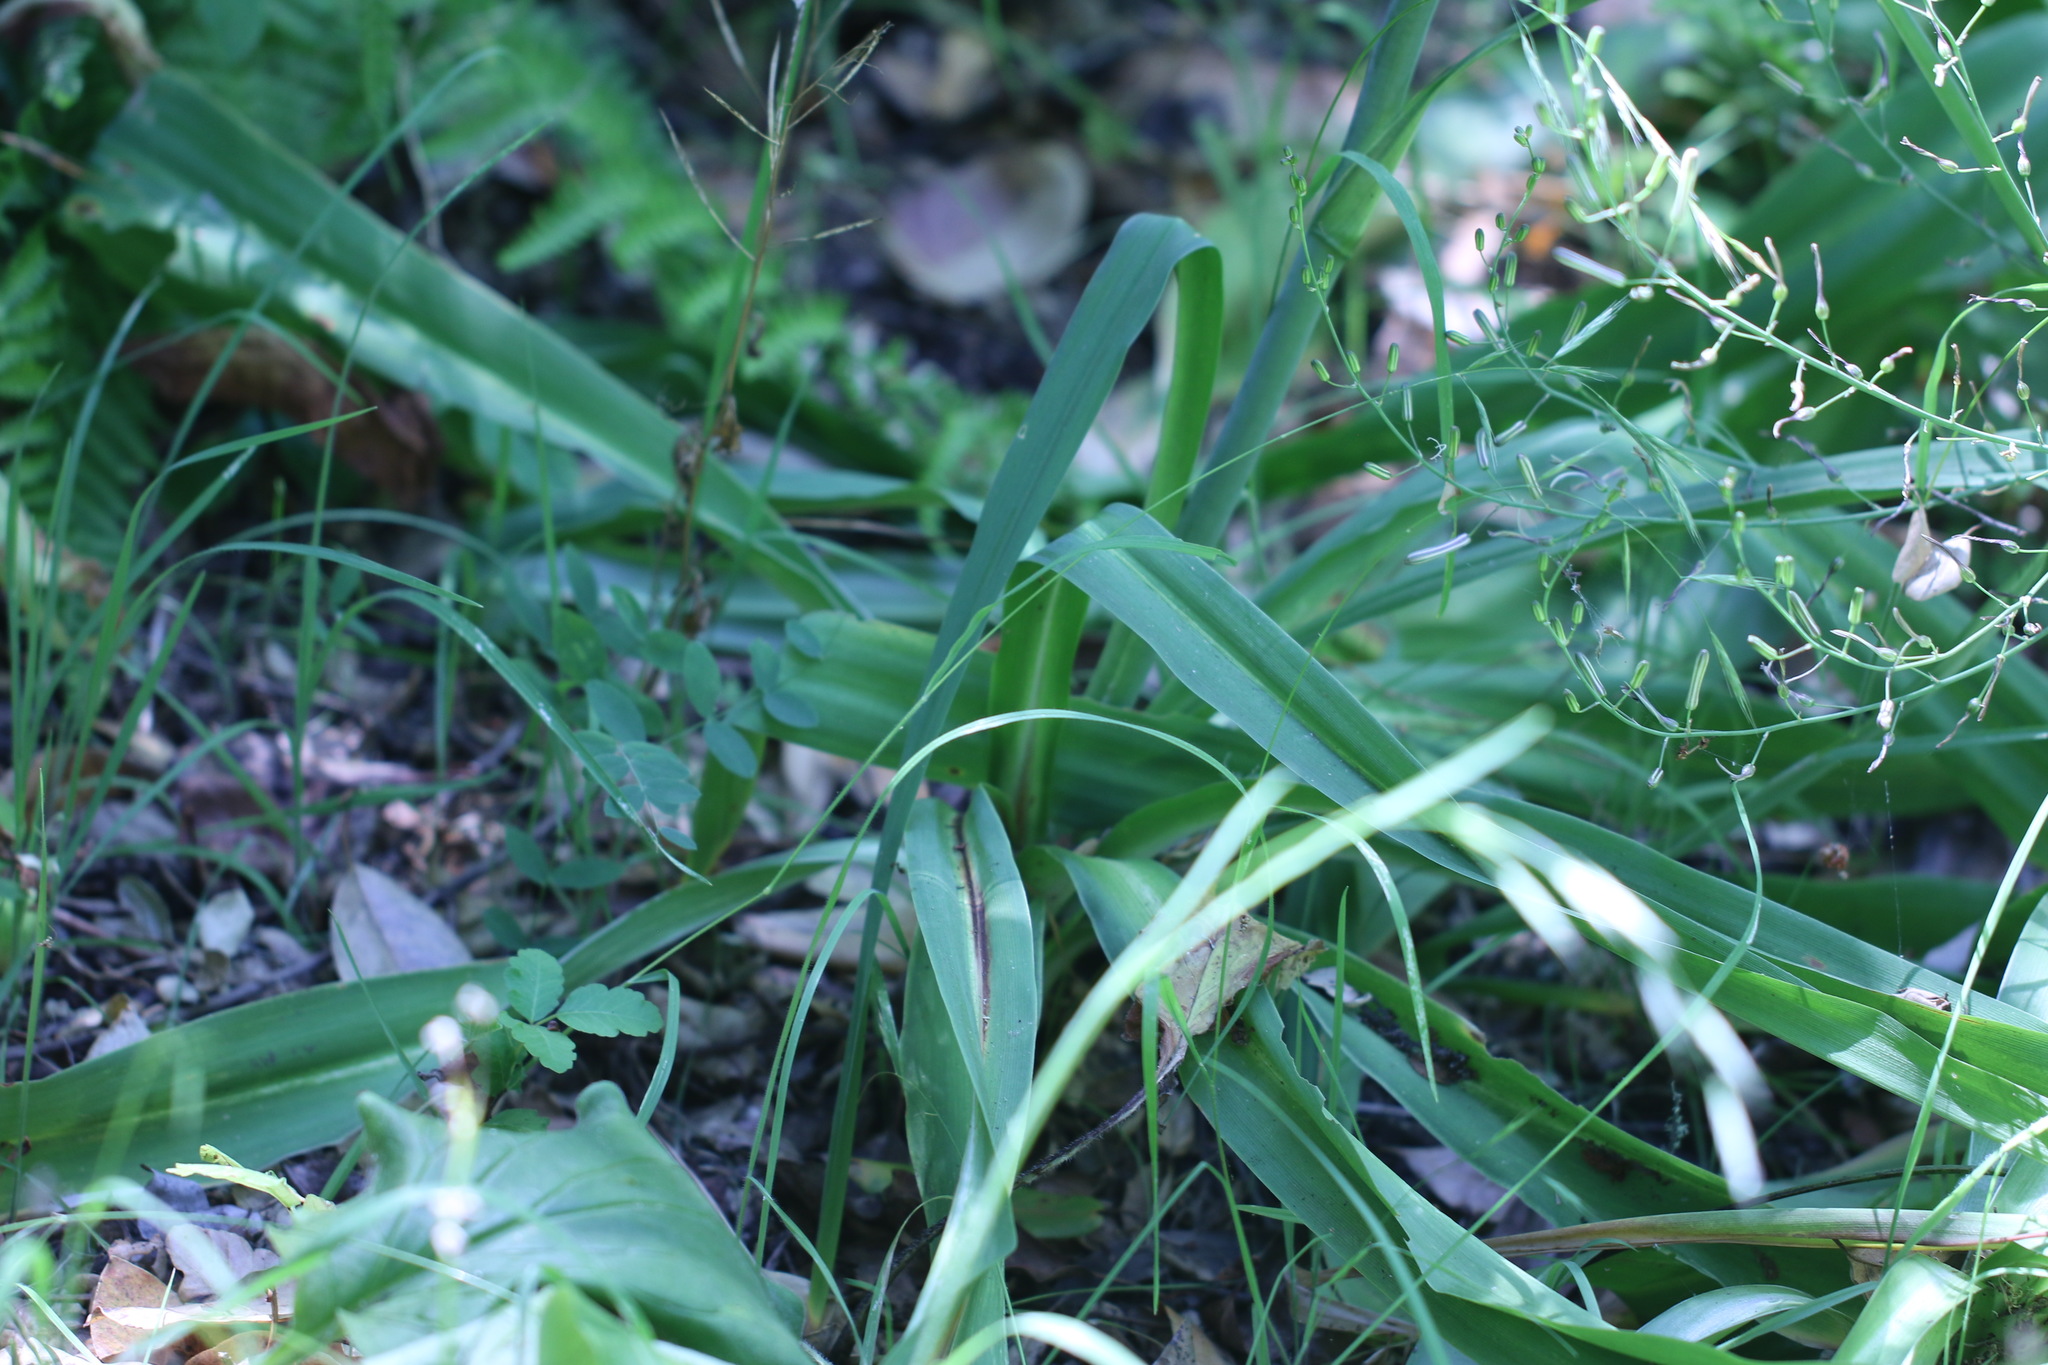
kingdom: Plantae
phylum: Tracheophyta
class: Liliopsida
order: Asparagales
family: Asparagaceae
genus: Chlorogalum
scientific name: Chlorogalum pomeridianum
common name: Amole
